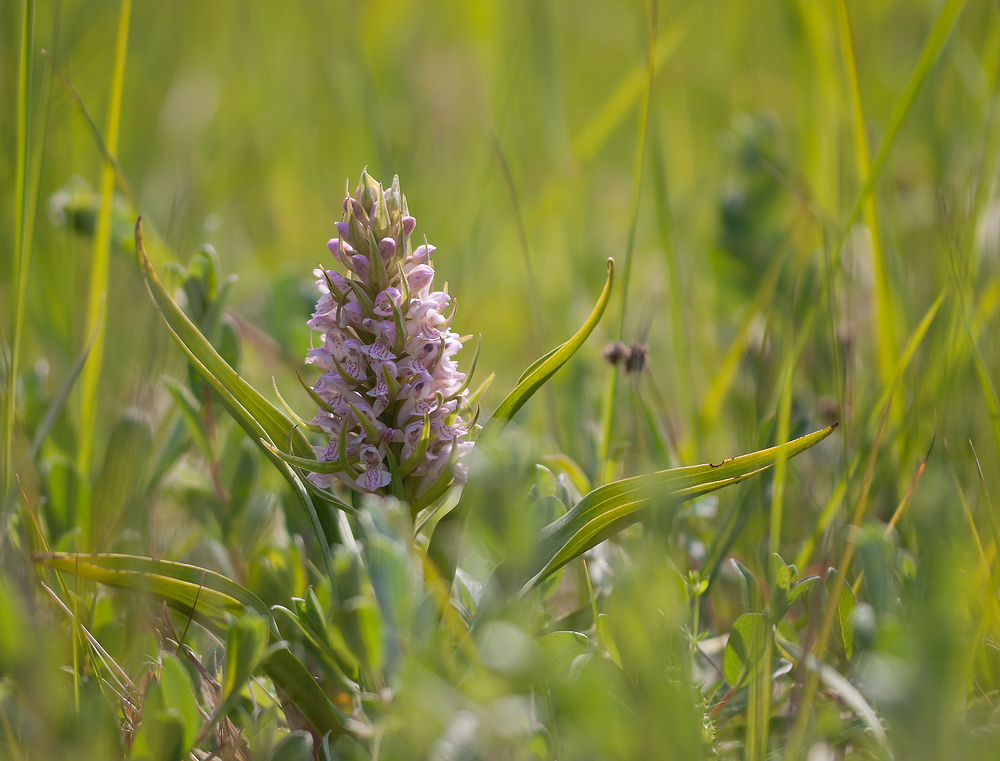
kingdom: Plantae
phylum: Tracheophyta
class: Liliopsida
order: Asparagales
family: Orchidaceae
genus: Dactylorhiza
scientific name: Dactylorhiza incarnata
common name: Early marsh-orchid
